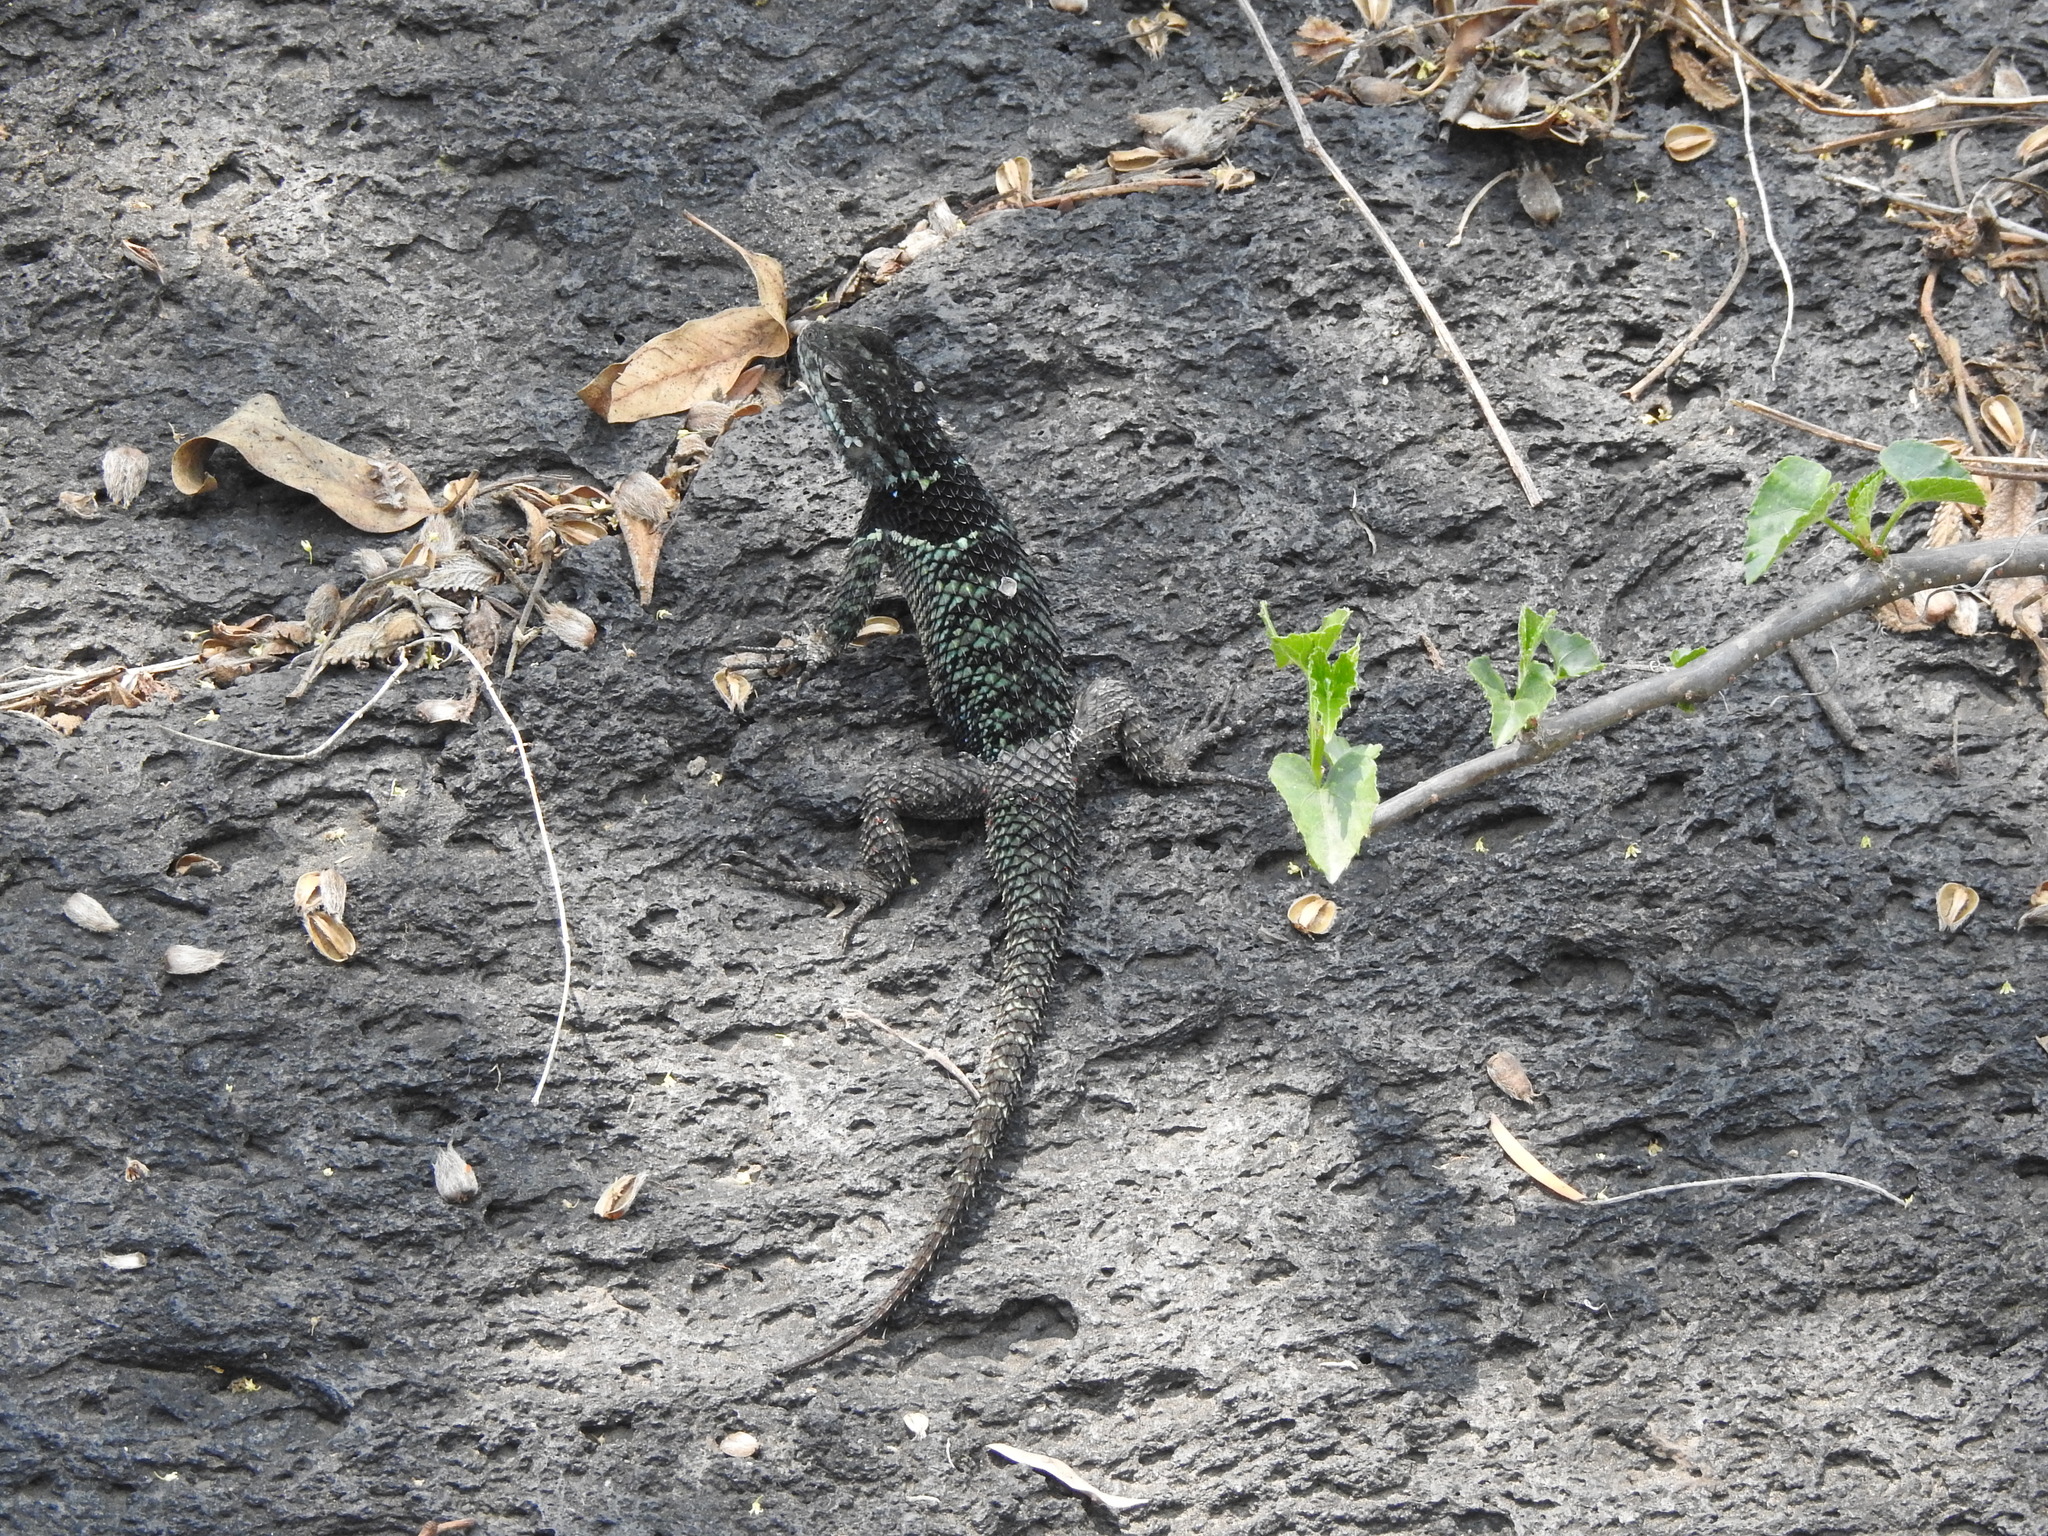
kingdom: Animalia
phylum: Chordata
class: Squamata
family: Phrynosomatidae
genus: Sceloporus
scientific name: Sceloporus torquatus
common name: Central plateau torquate lizard [melanogaster]
